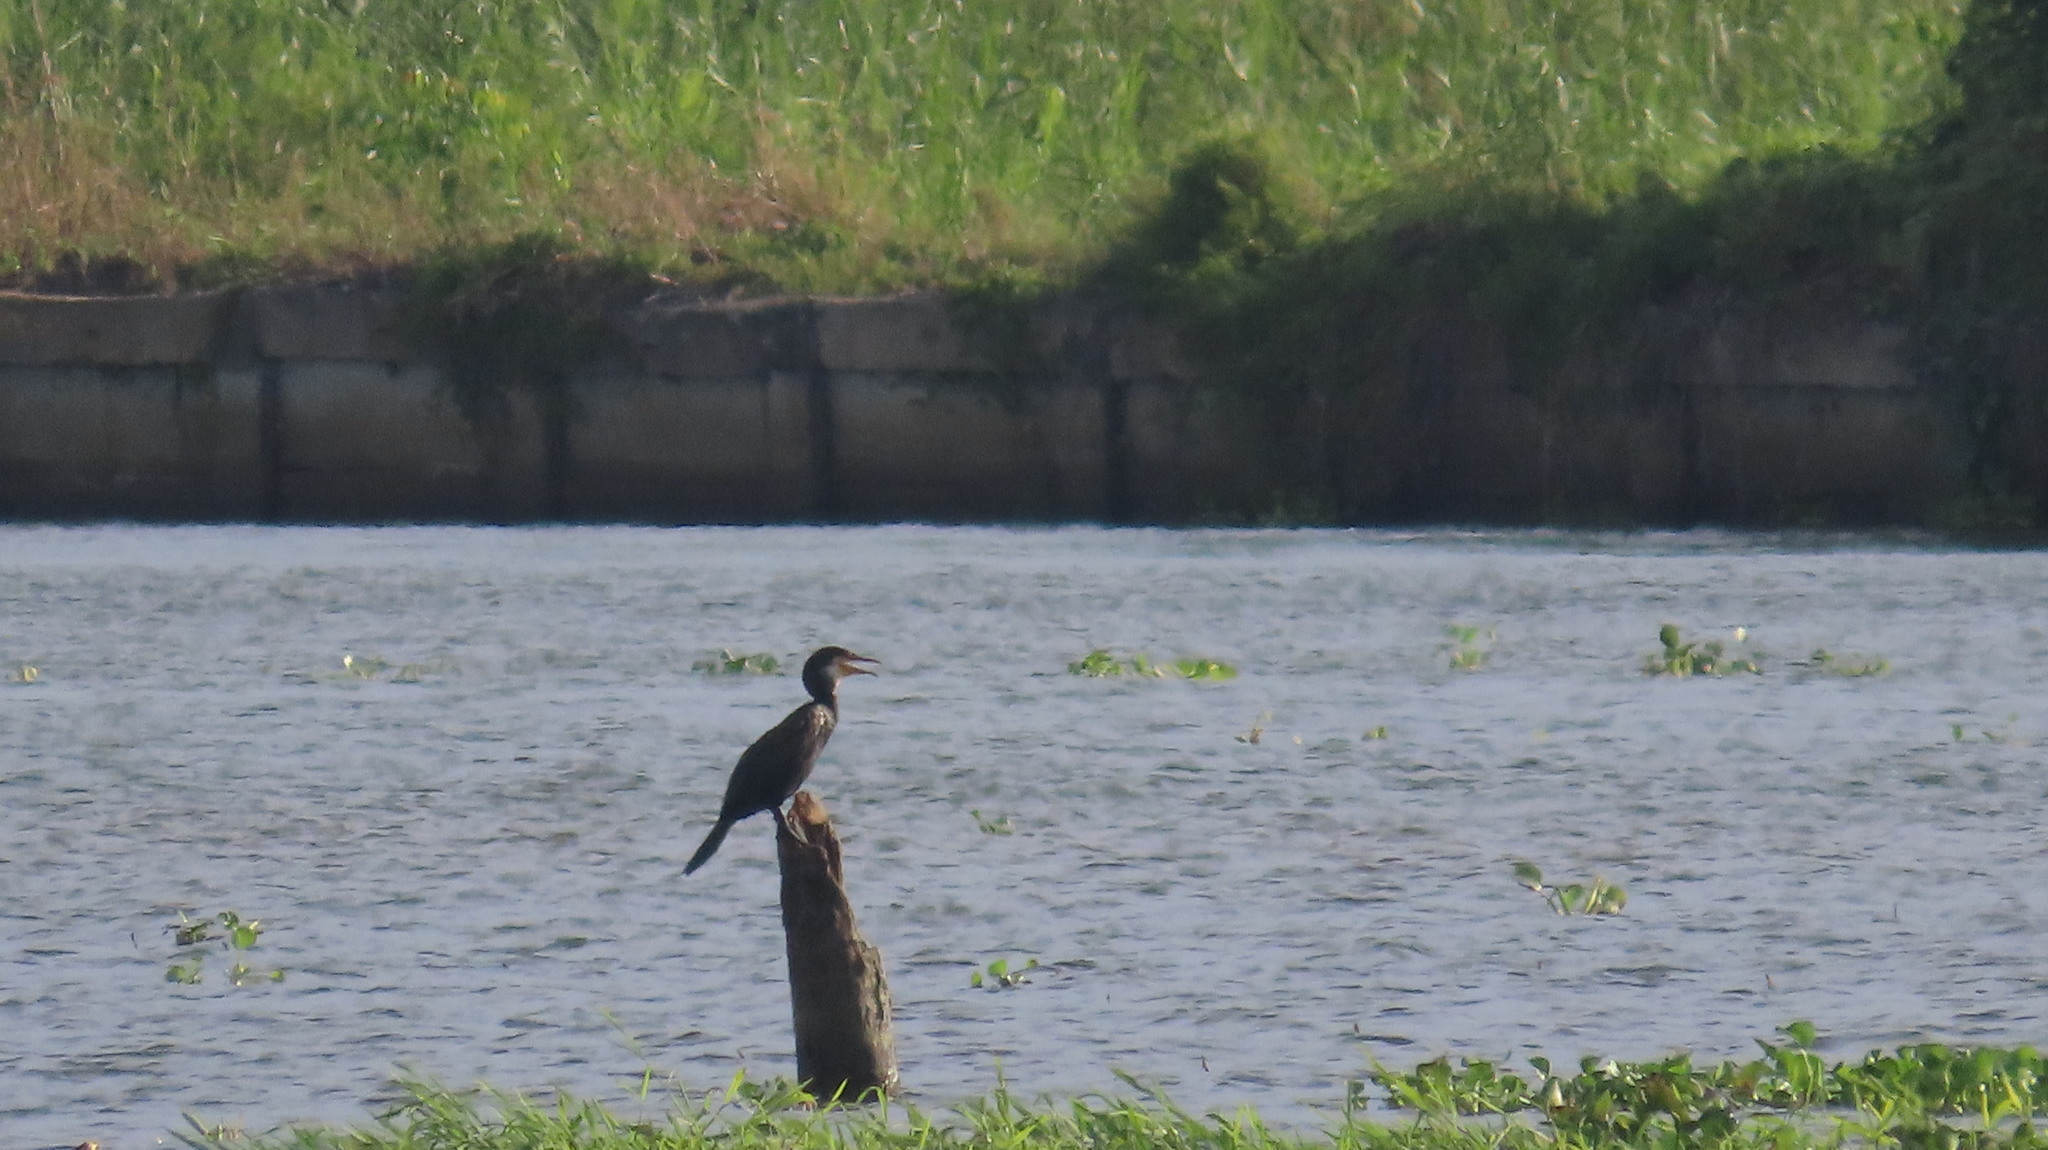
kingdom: Animalia
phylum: Chordata
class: Aves
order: Suliformes
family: Phalacrocoracidae
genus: Phalacrocorax
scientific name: Phalacrocorax fuscicollis
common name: Indian cormorant
